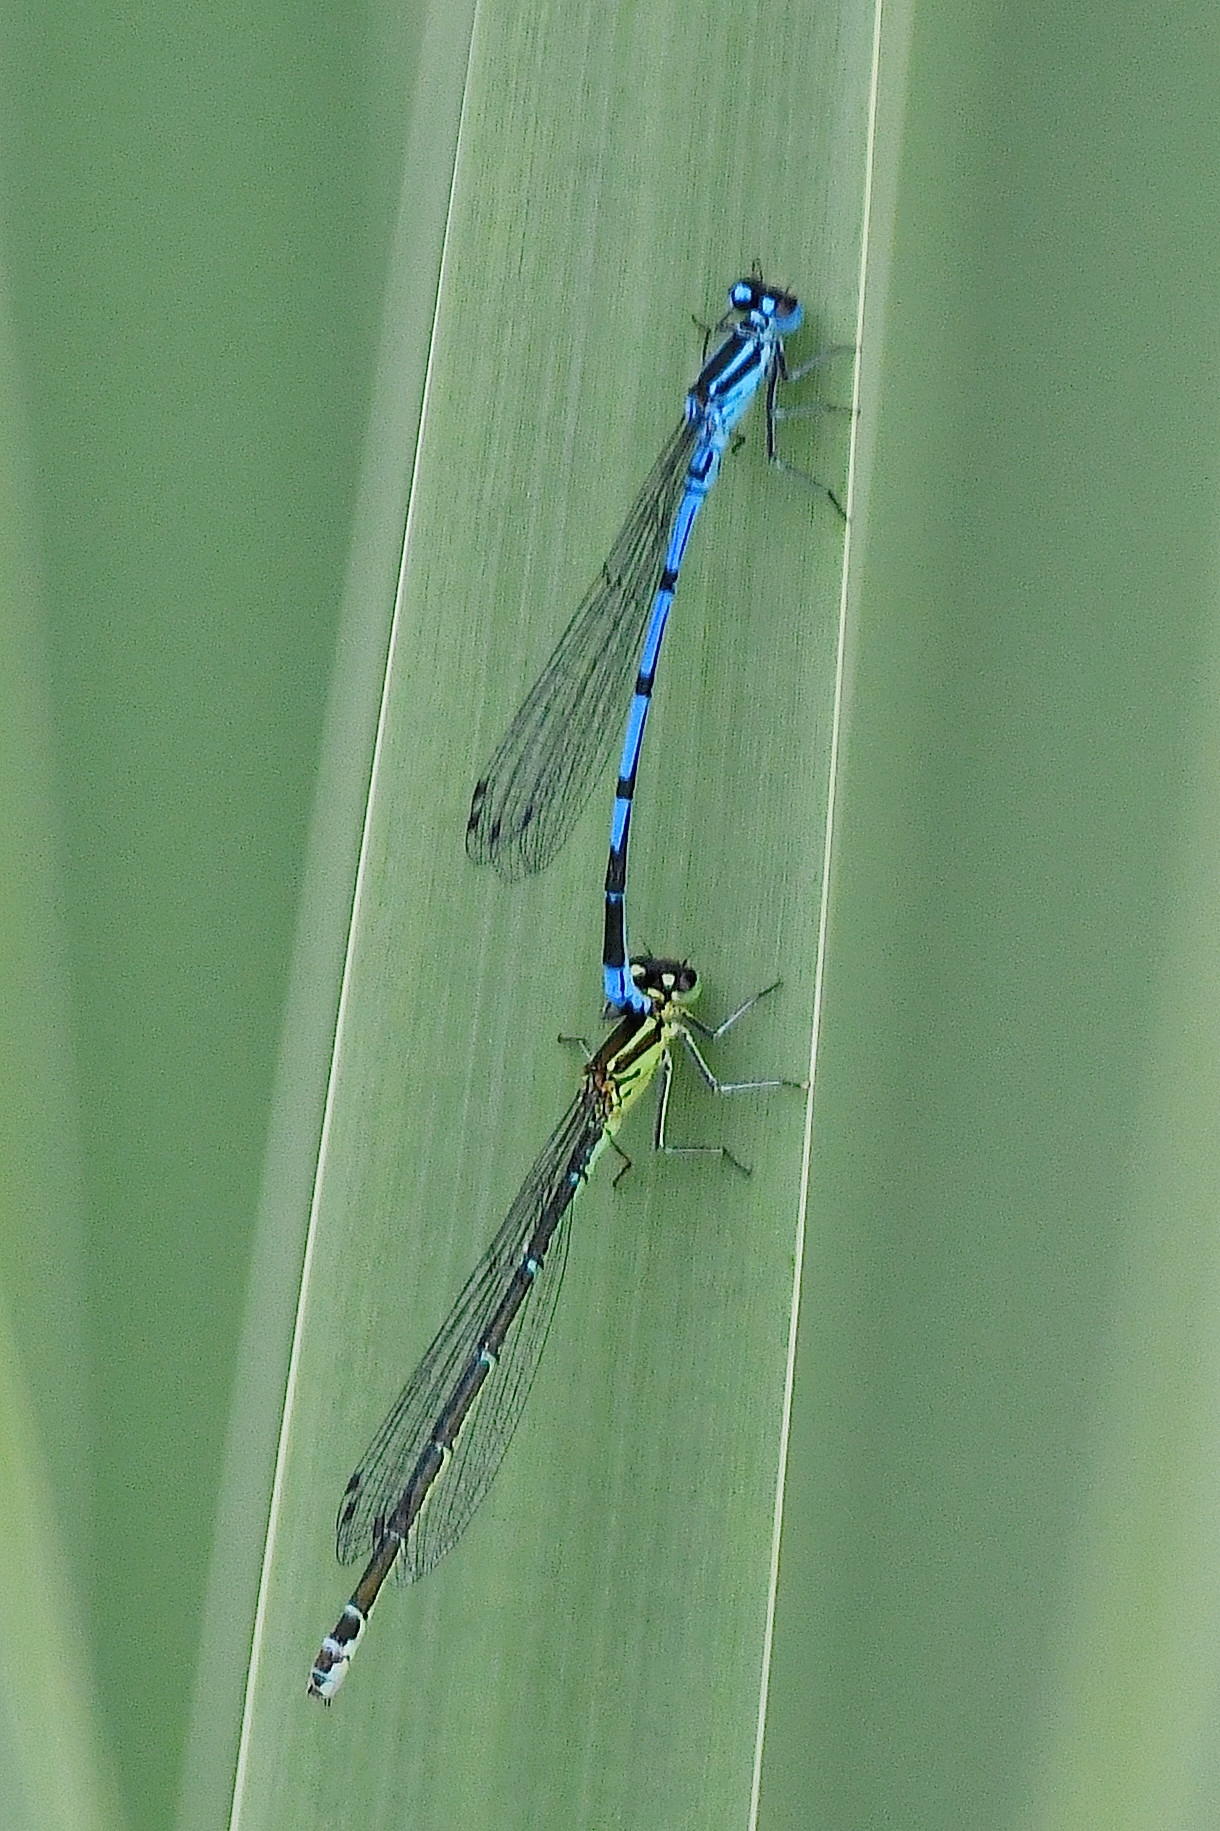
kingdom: Animalia
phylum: Arthropoda
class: Insecta
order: Odonata
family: Coenagrionidae
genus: Coenagrion
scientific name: Coenagrion puella
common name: Azure damselfly
